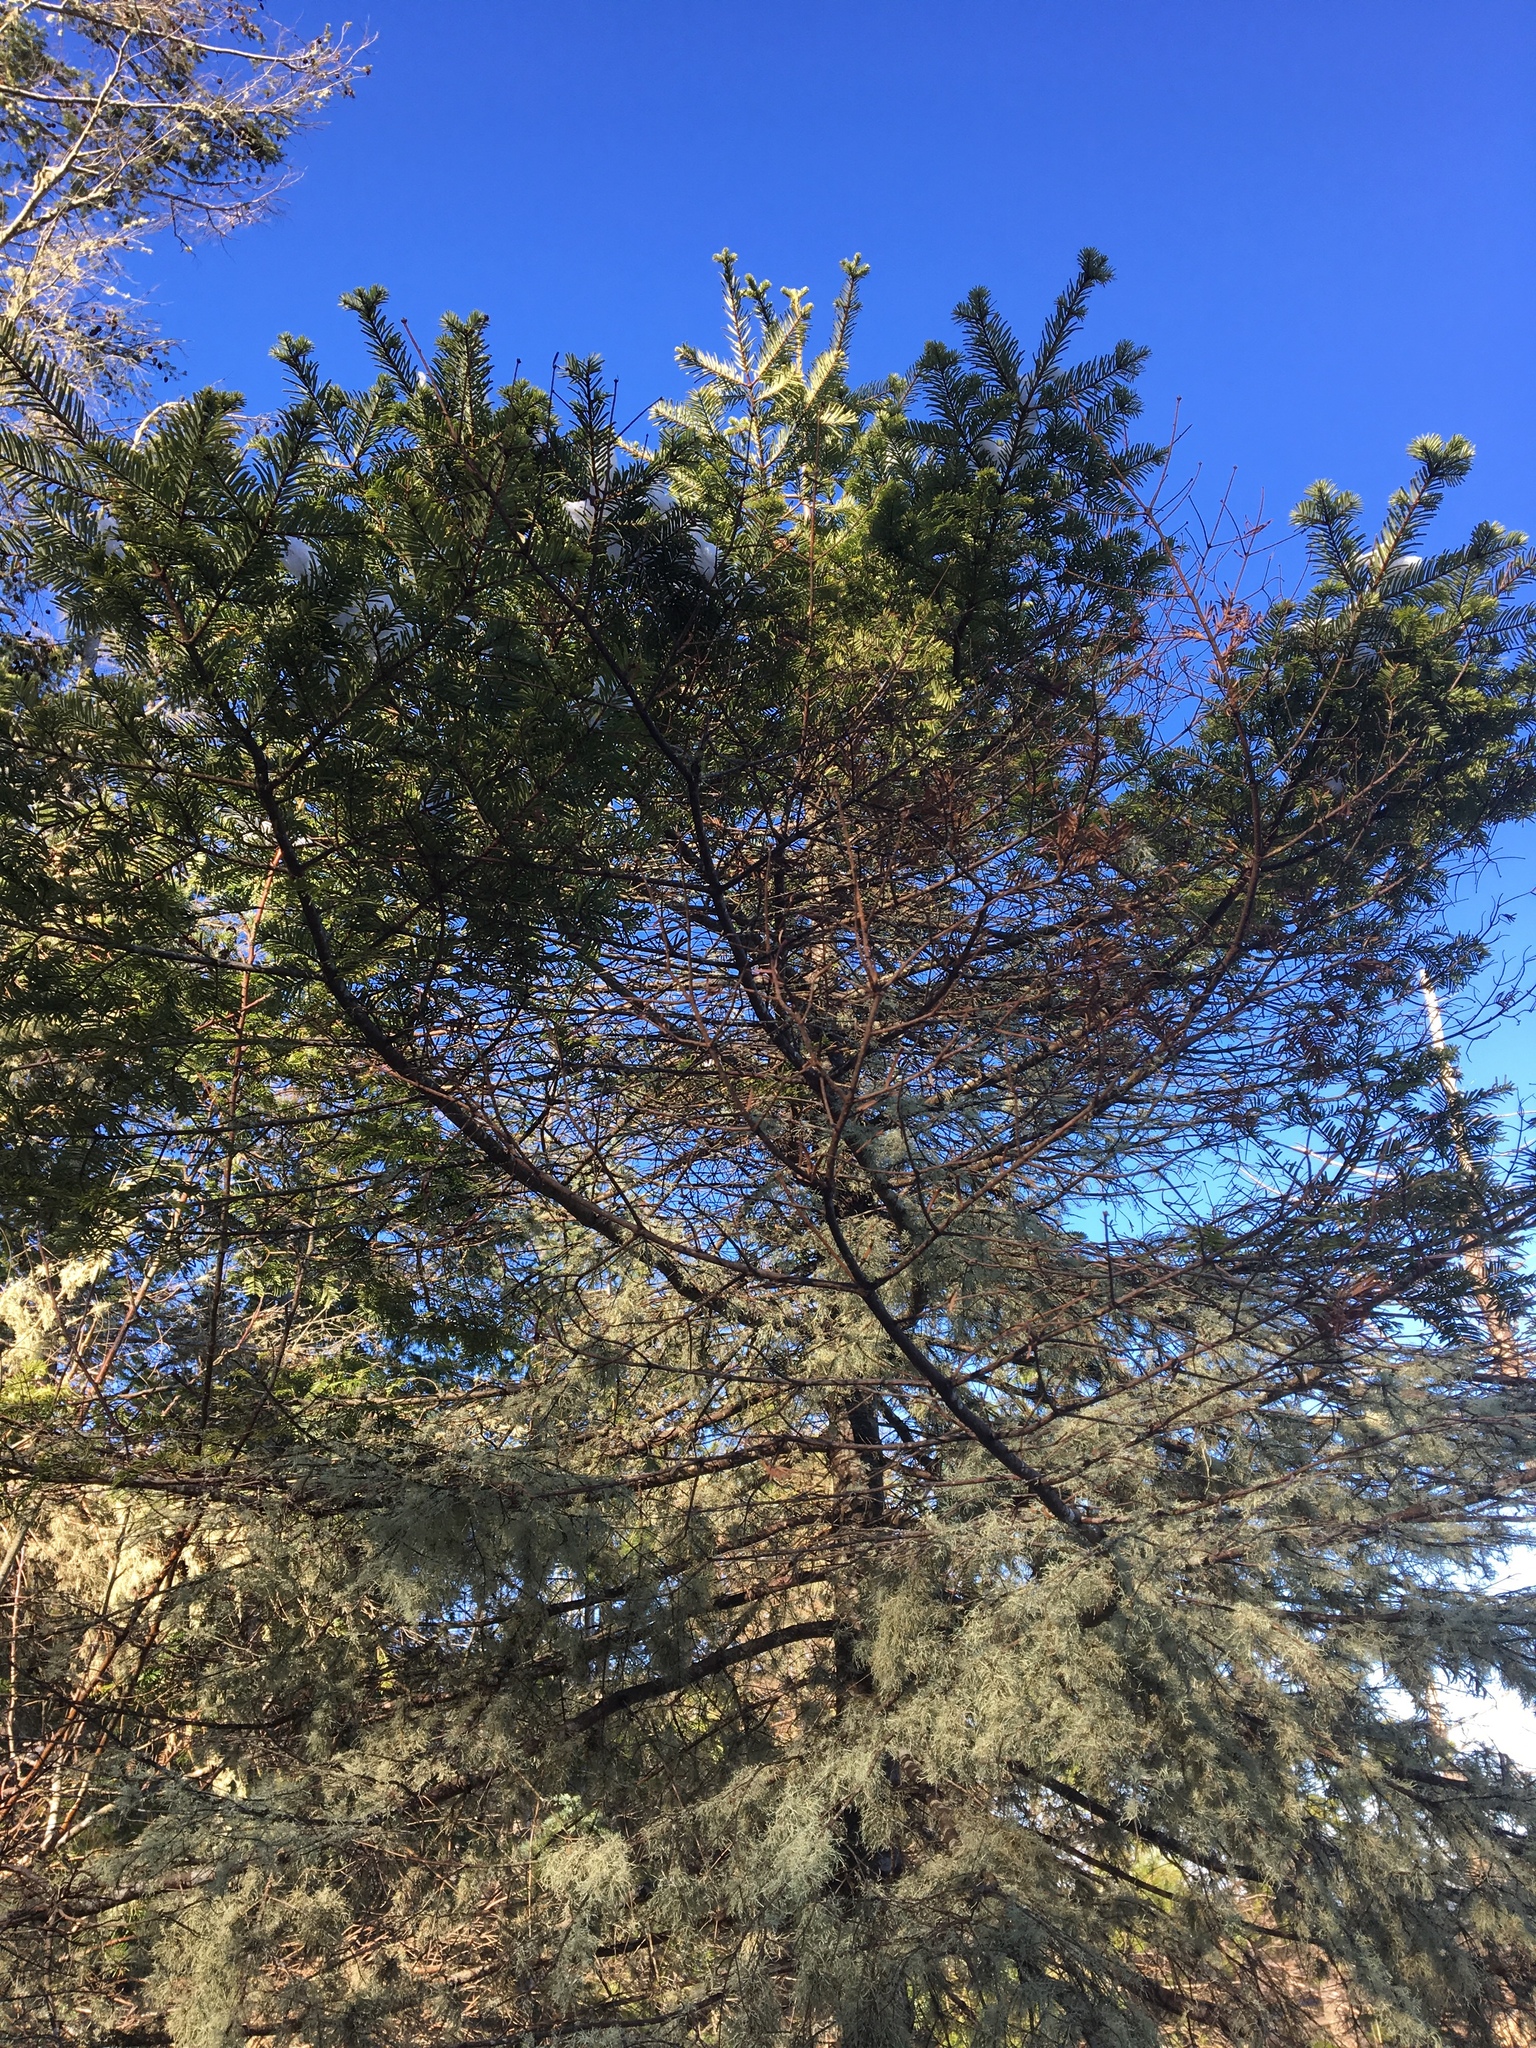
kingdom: Plantae
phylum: Tracheophyta
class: Pinopsida
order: Pinales
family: Pinaceae
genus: Abies
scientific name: Abies grandis
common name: Giant fir
